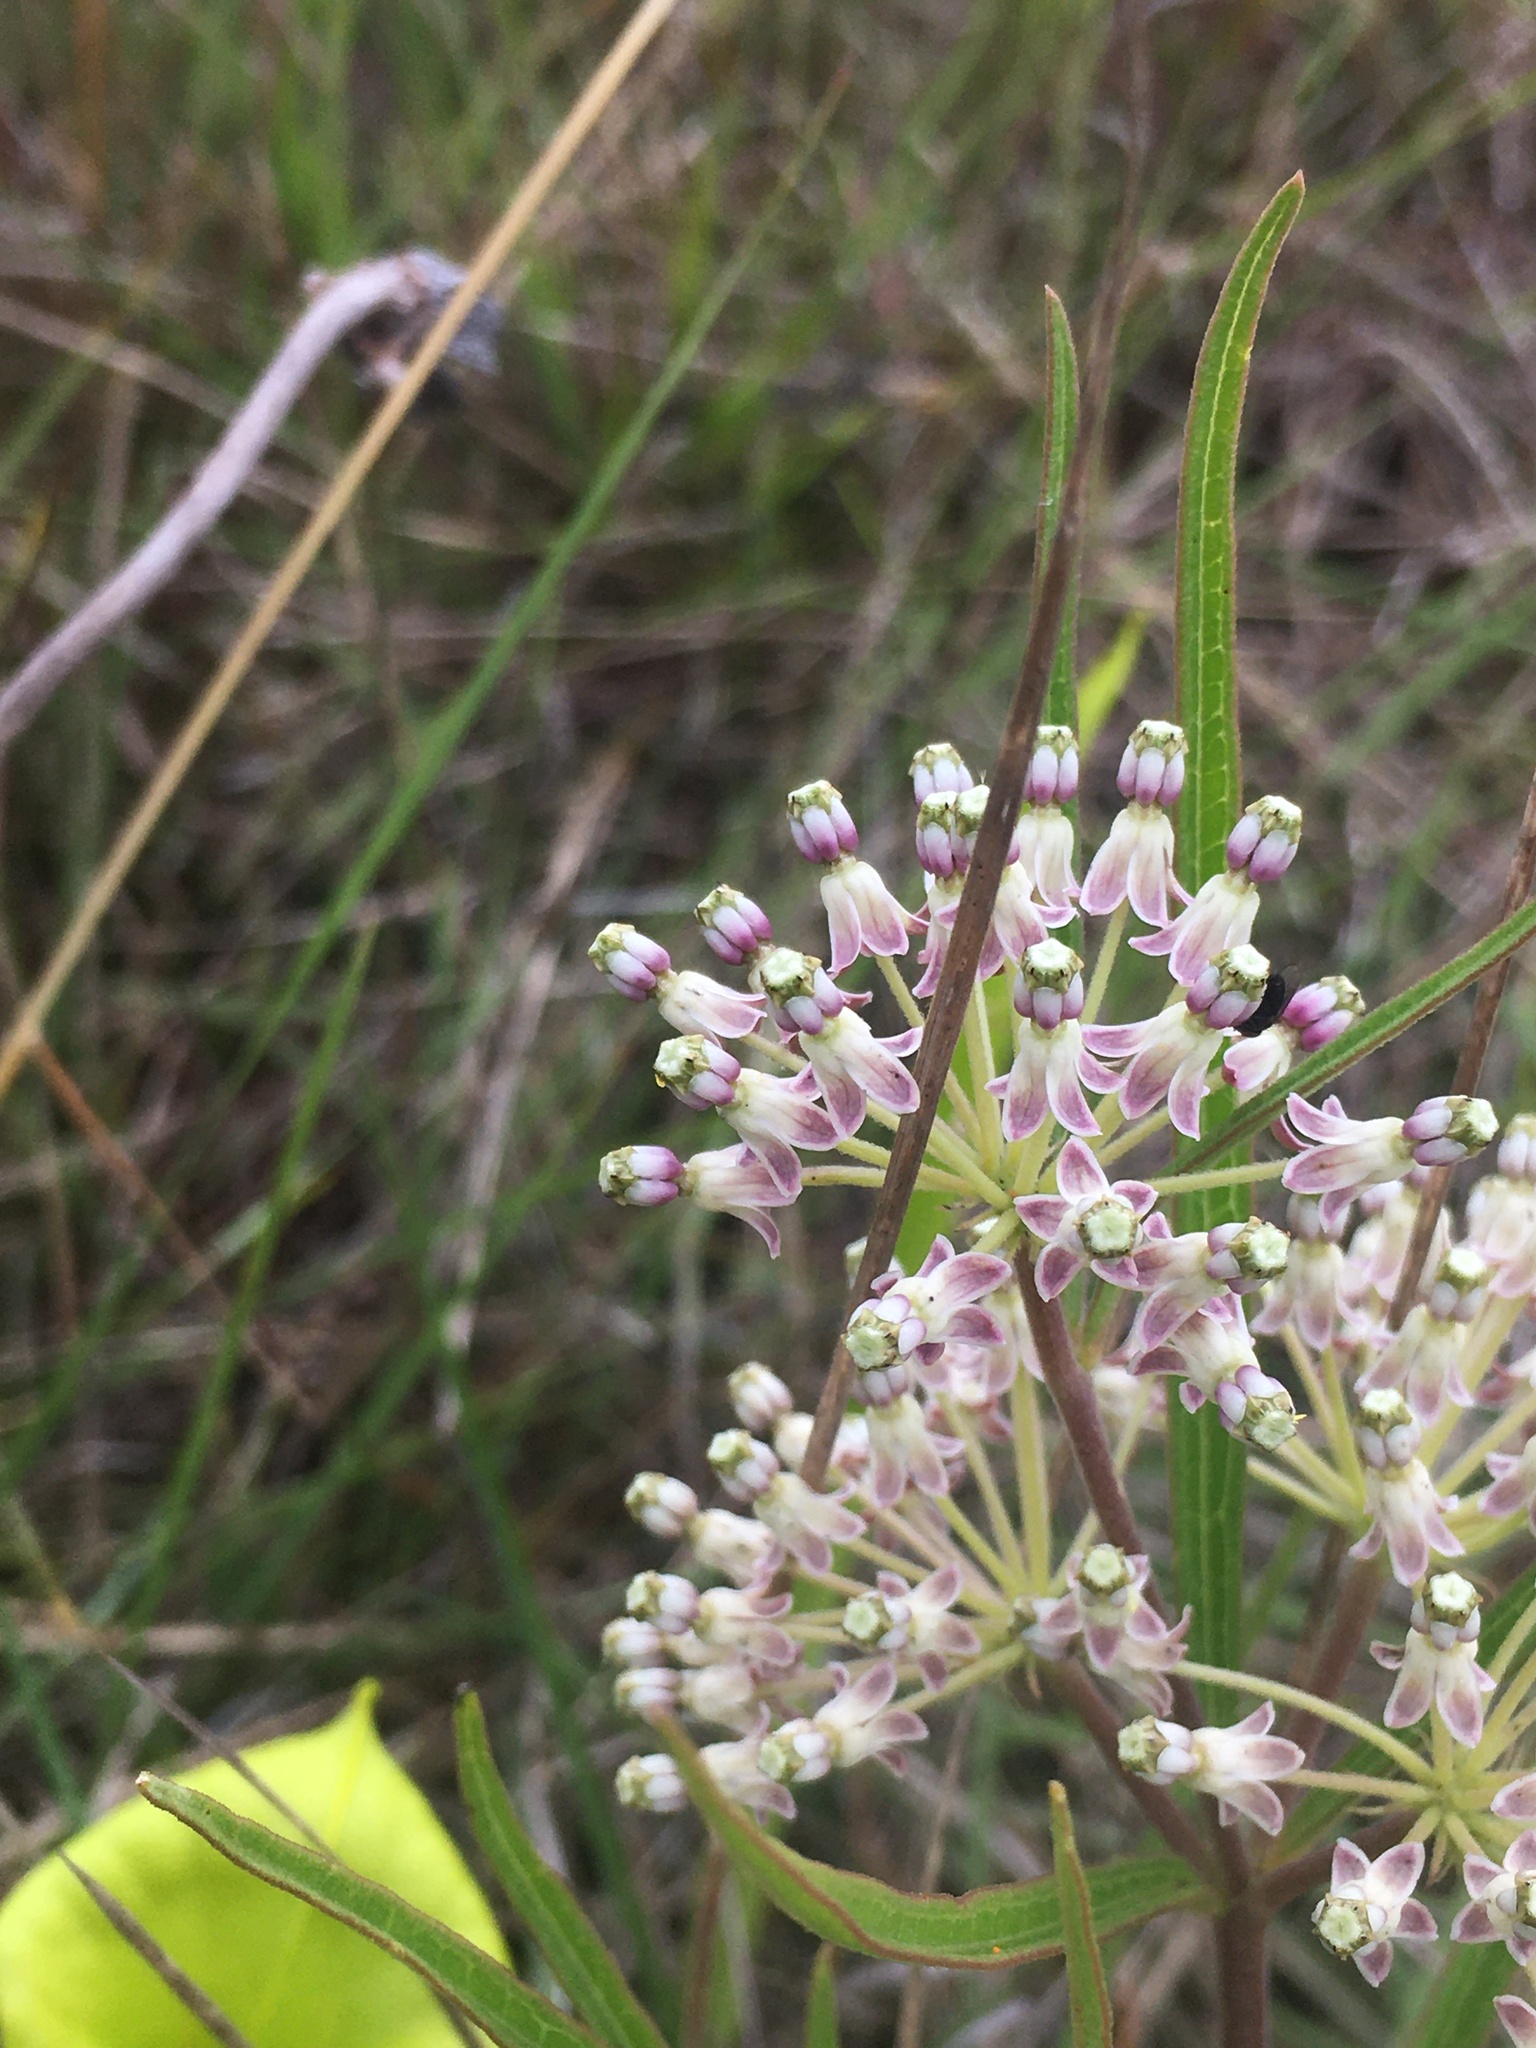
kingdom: Plantae
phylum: Tracheophyta
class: Magnoliopsida
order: Gentianales
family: Apocynaceae
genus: Asclepias
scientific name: Asclepias longifolia
